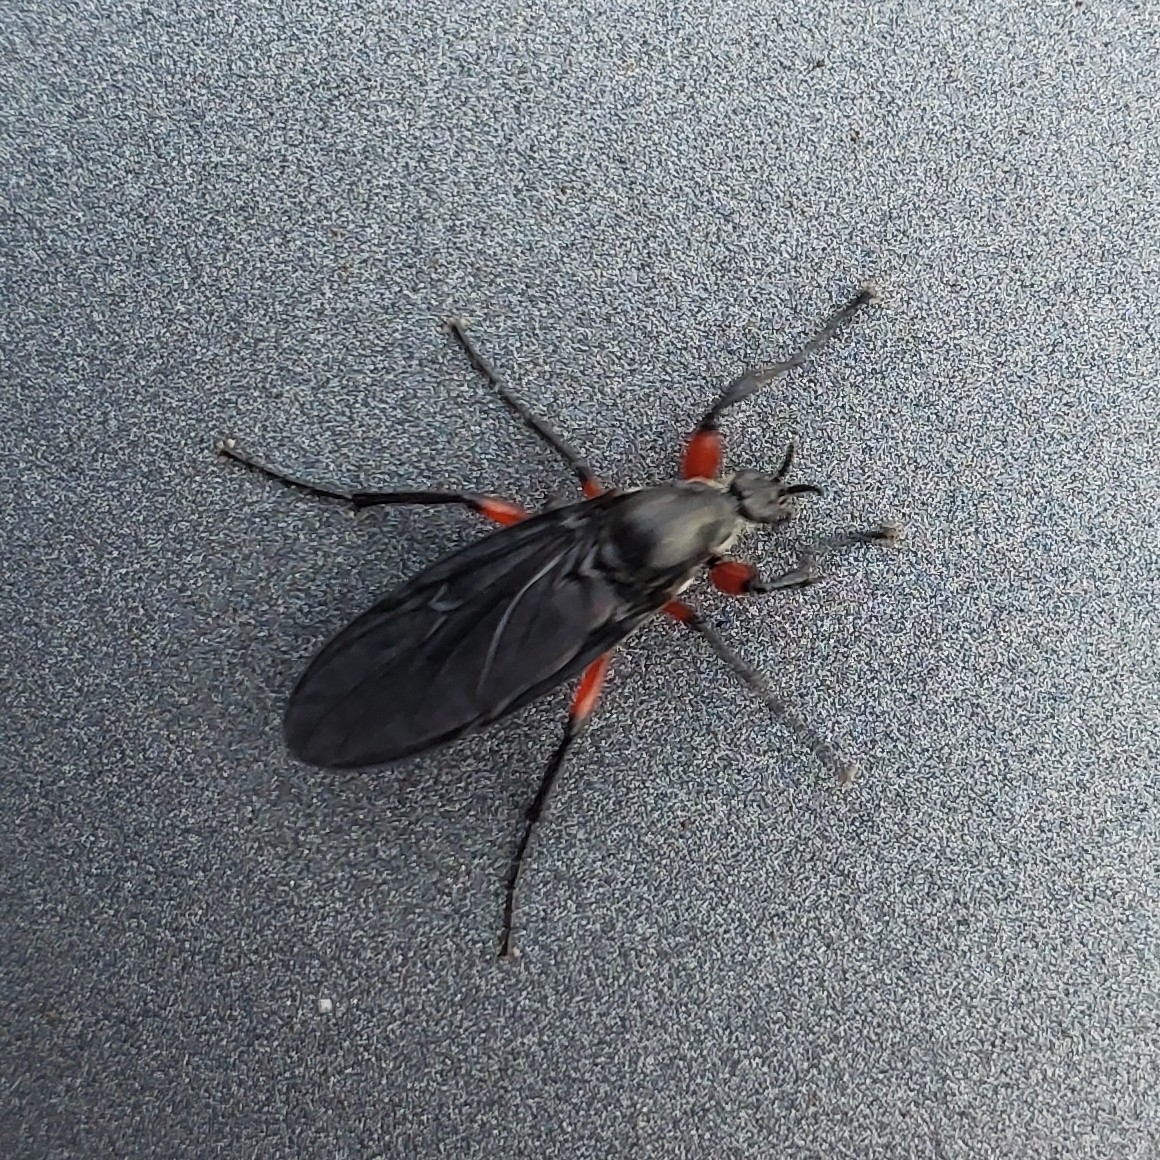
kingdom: Animalia
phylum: Arthropoda
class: Insecta
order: Diptera
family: Bibionidae
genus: Bibio
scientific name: Bibio femoratus
